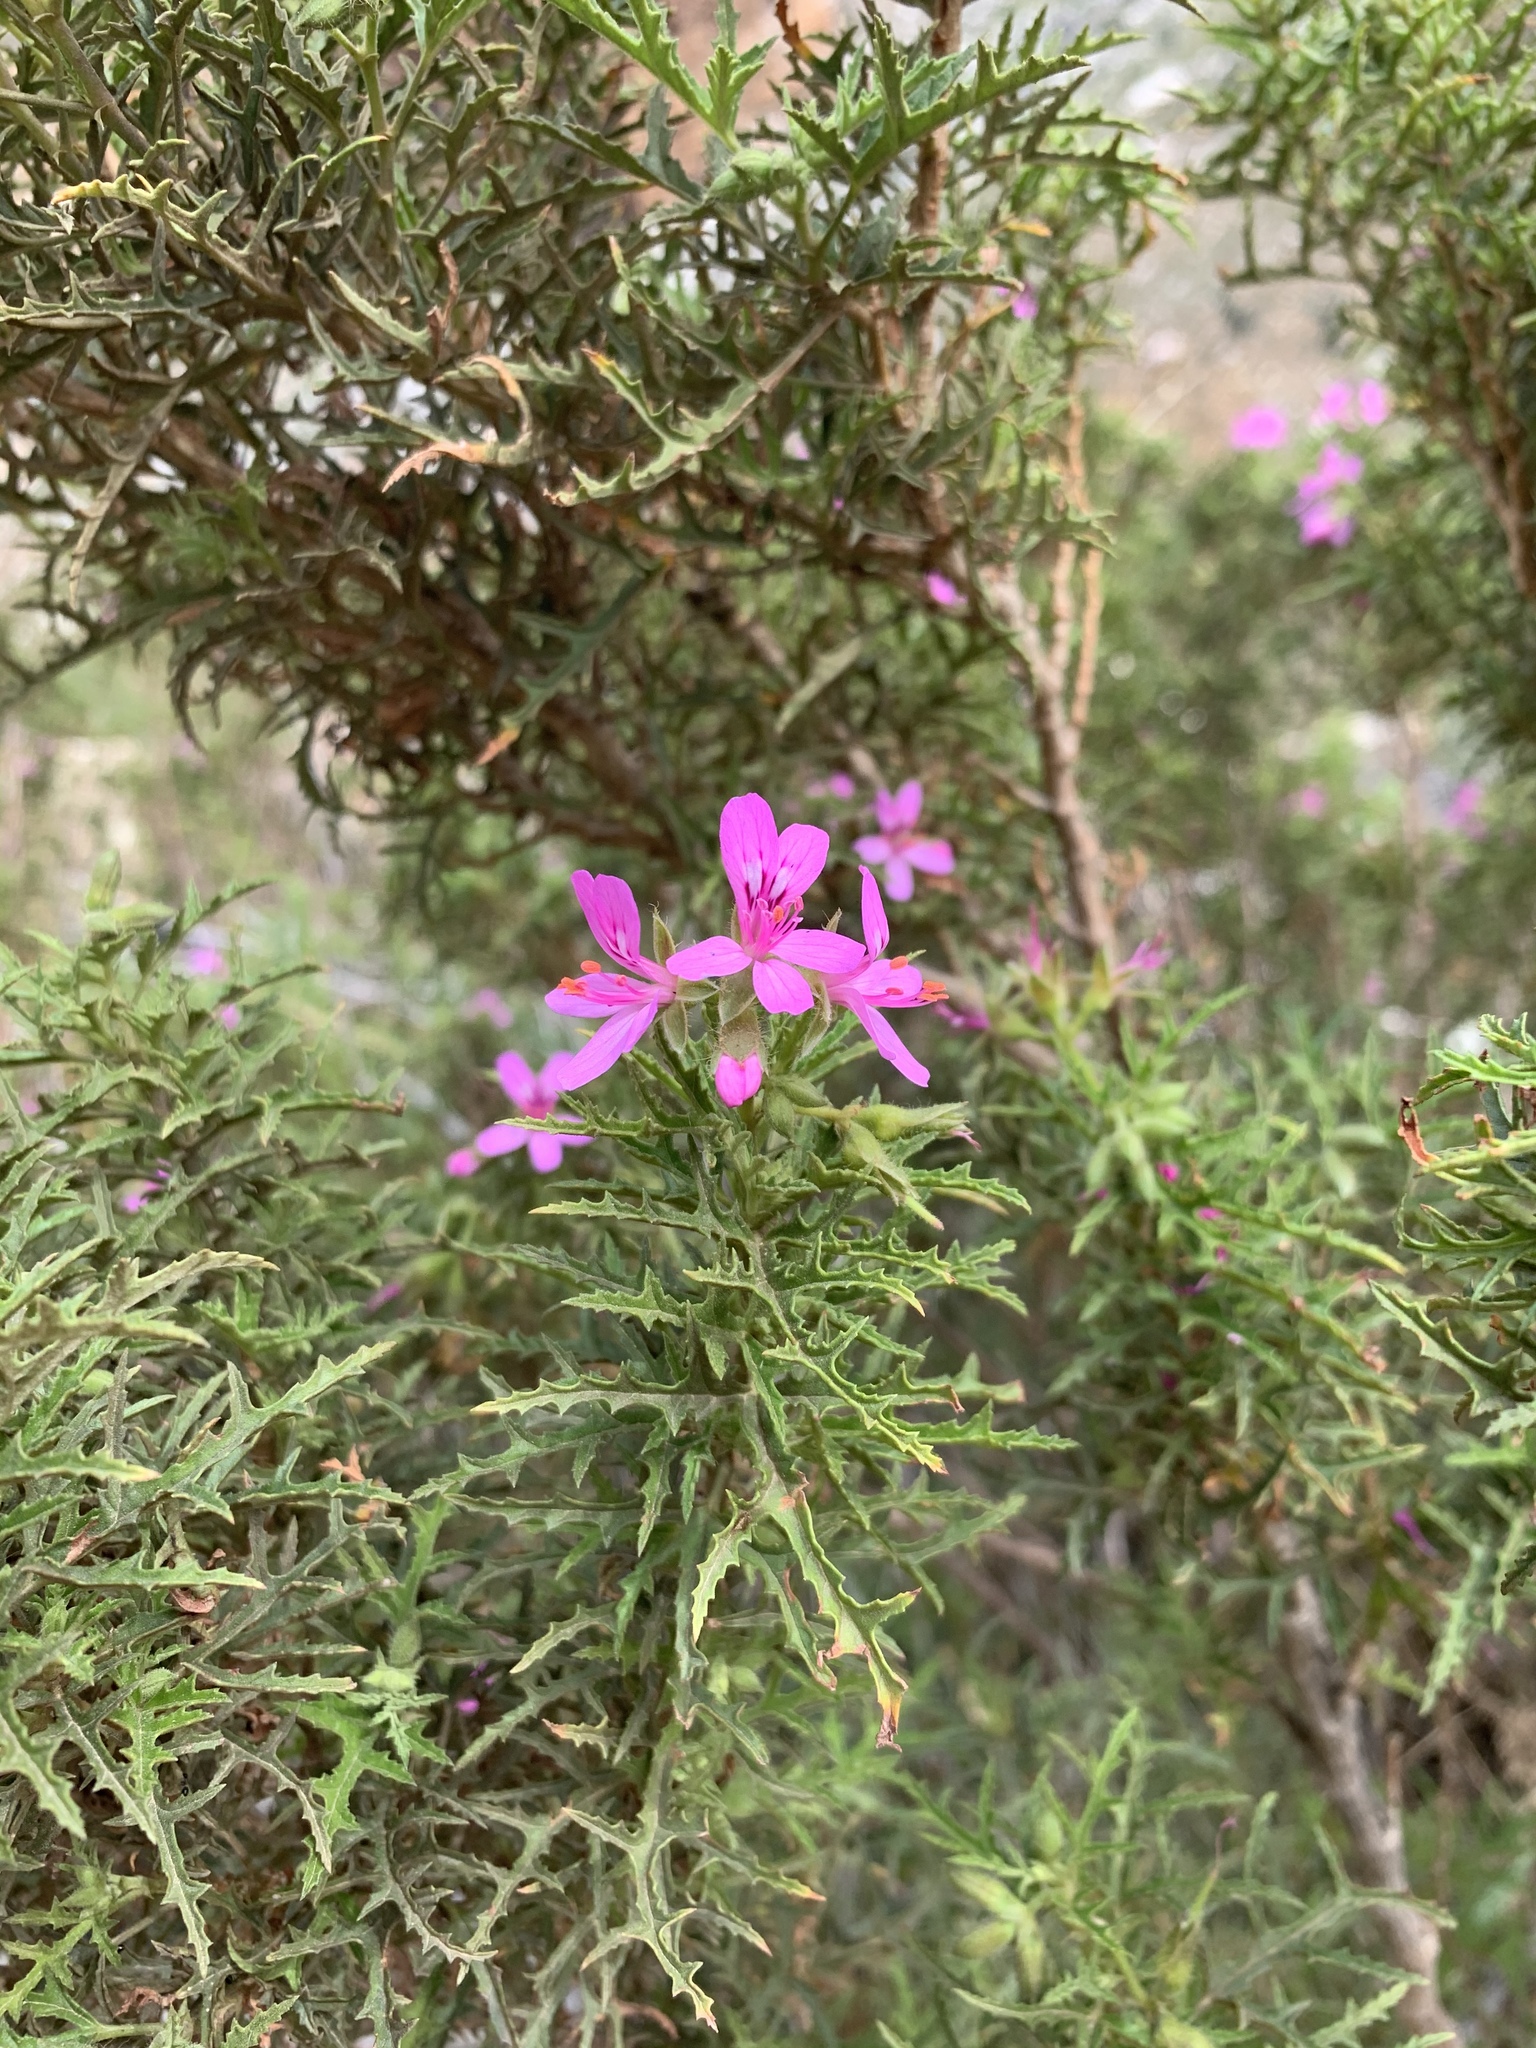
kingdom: Plantae
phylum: Tracheophyta
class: Magnoliopsida
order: Geraniales
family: Geraniaceae
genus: Pelargonium
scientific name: Pelargonium denticulatum
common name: Pine geranium
